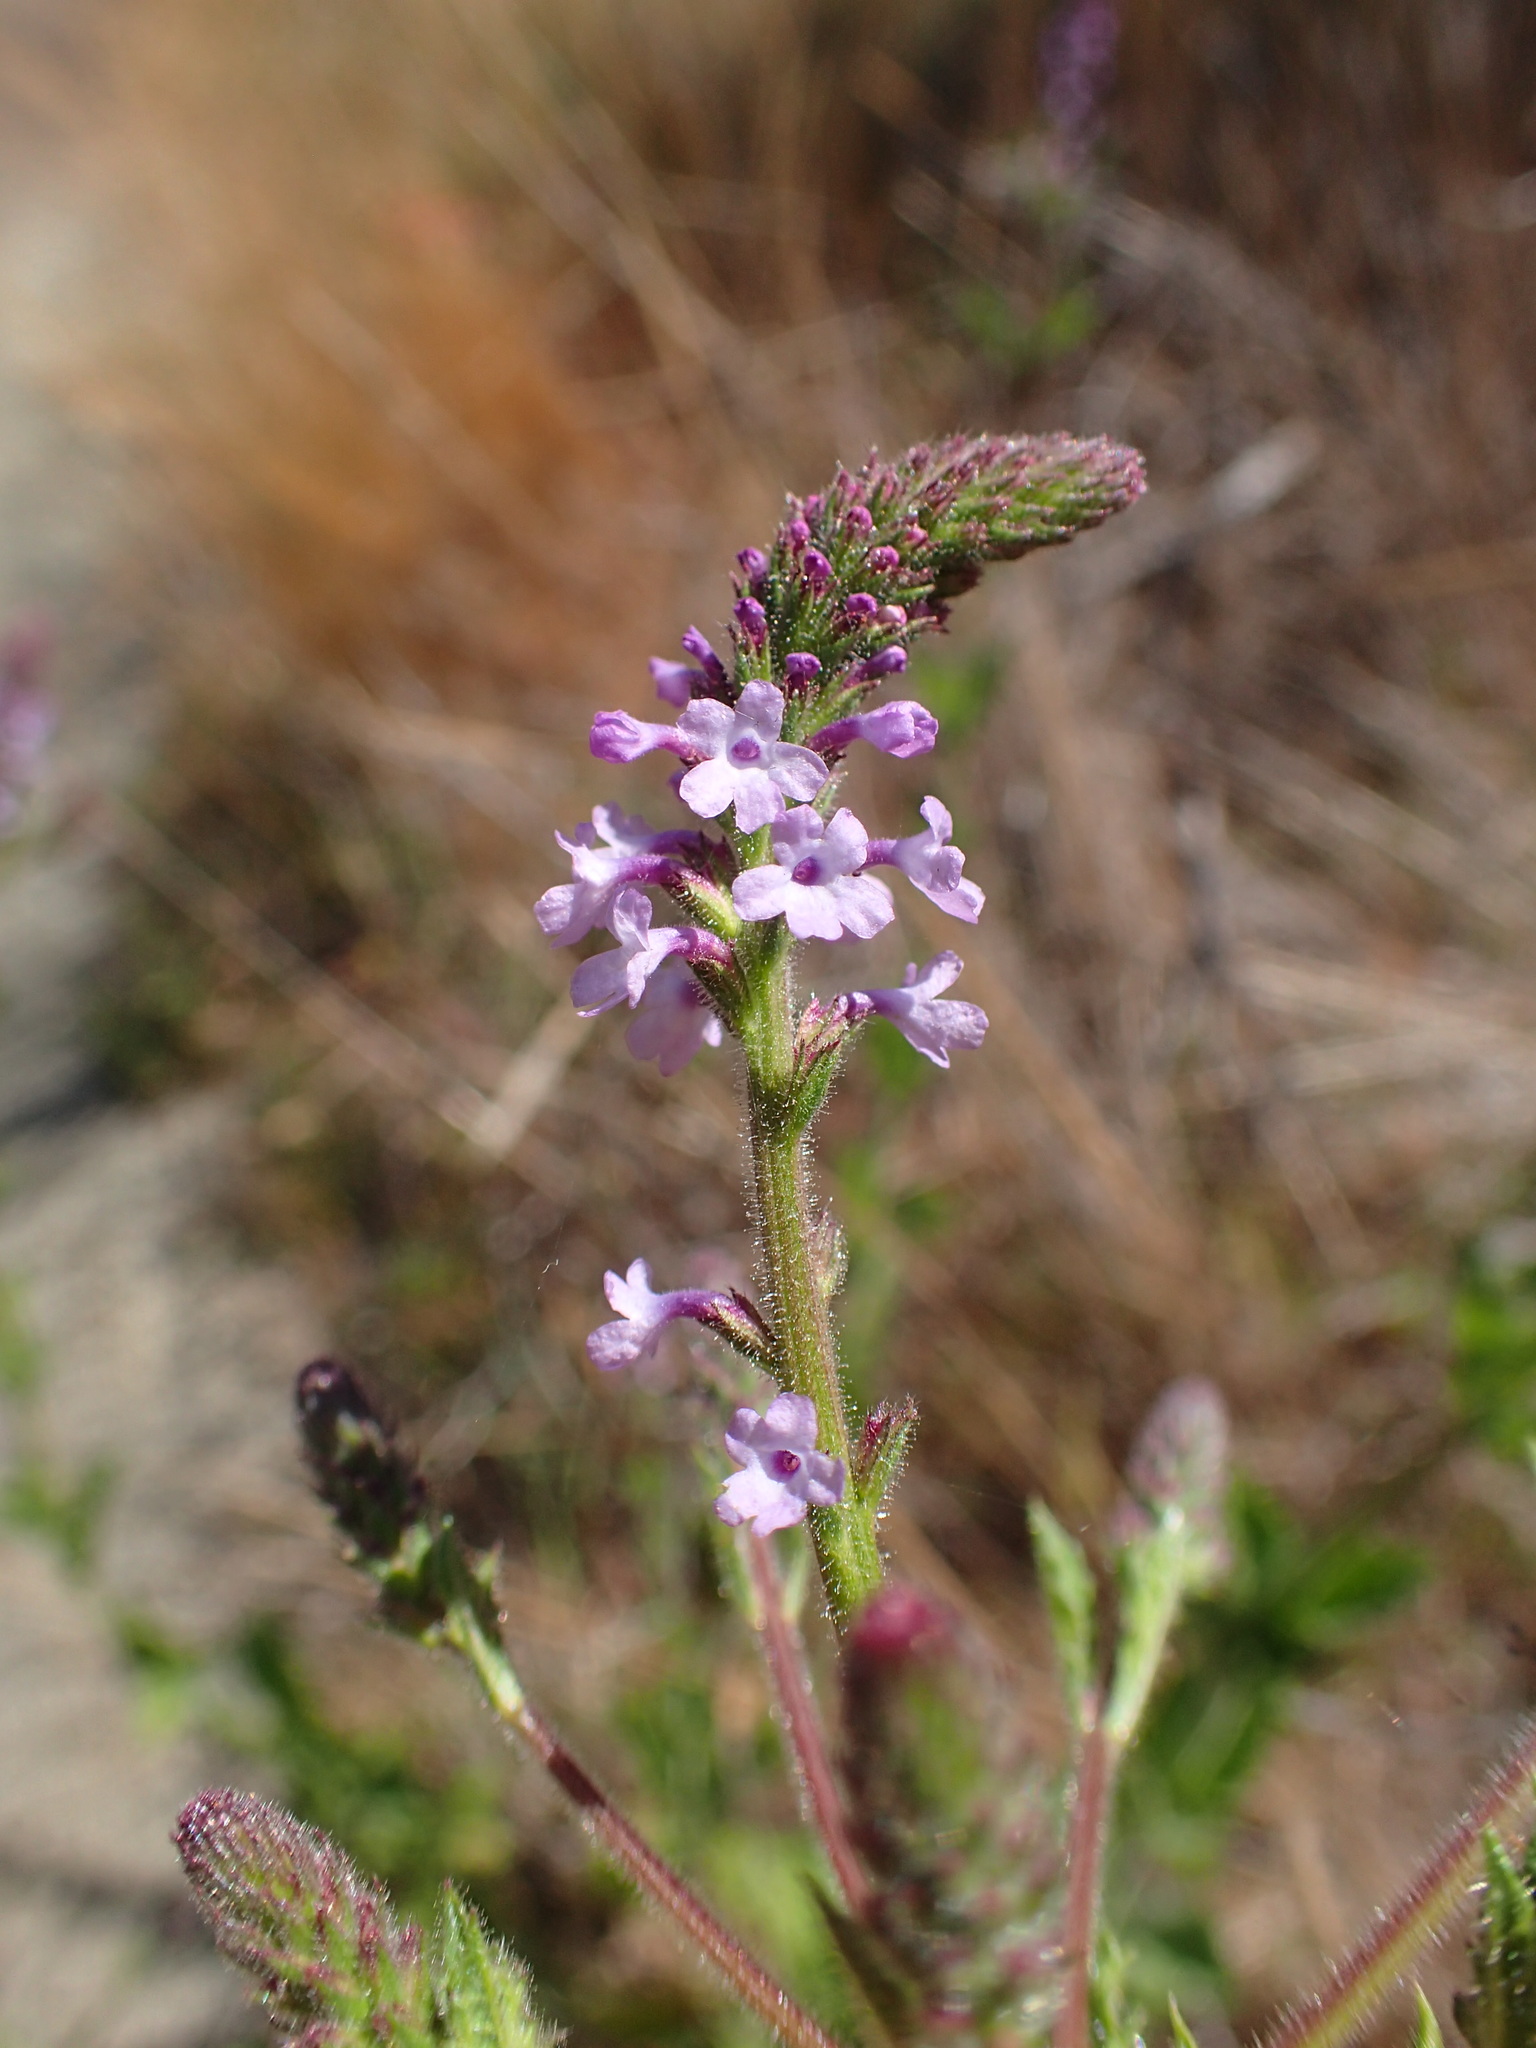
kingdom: Plantae
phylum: Tracheophyta
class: Magnoliopsida
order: Lamiales
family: Verbenaceae
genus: Verbena
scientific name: Verbena lasiostachys
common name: Vervain
